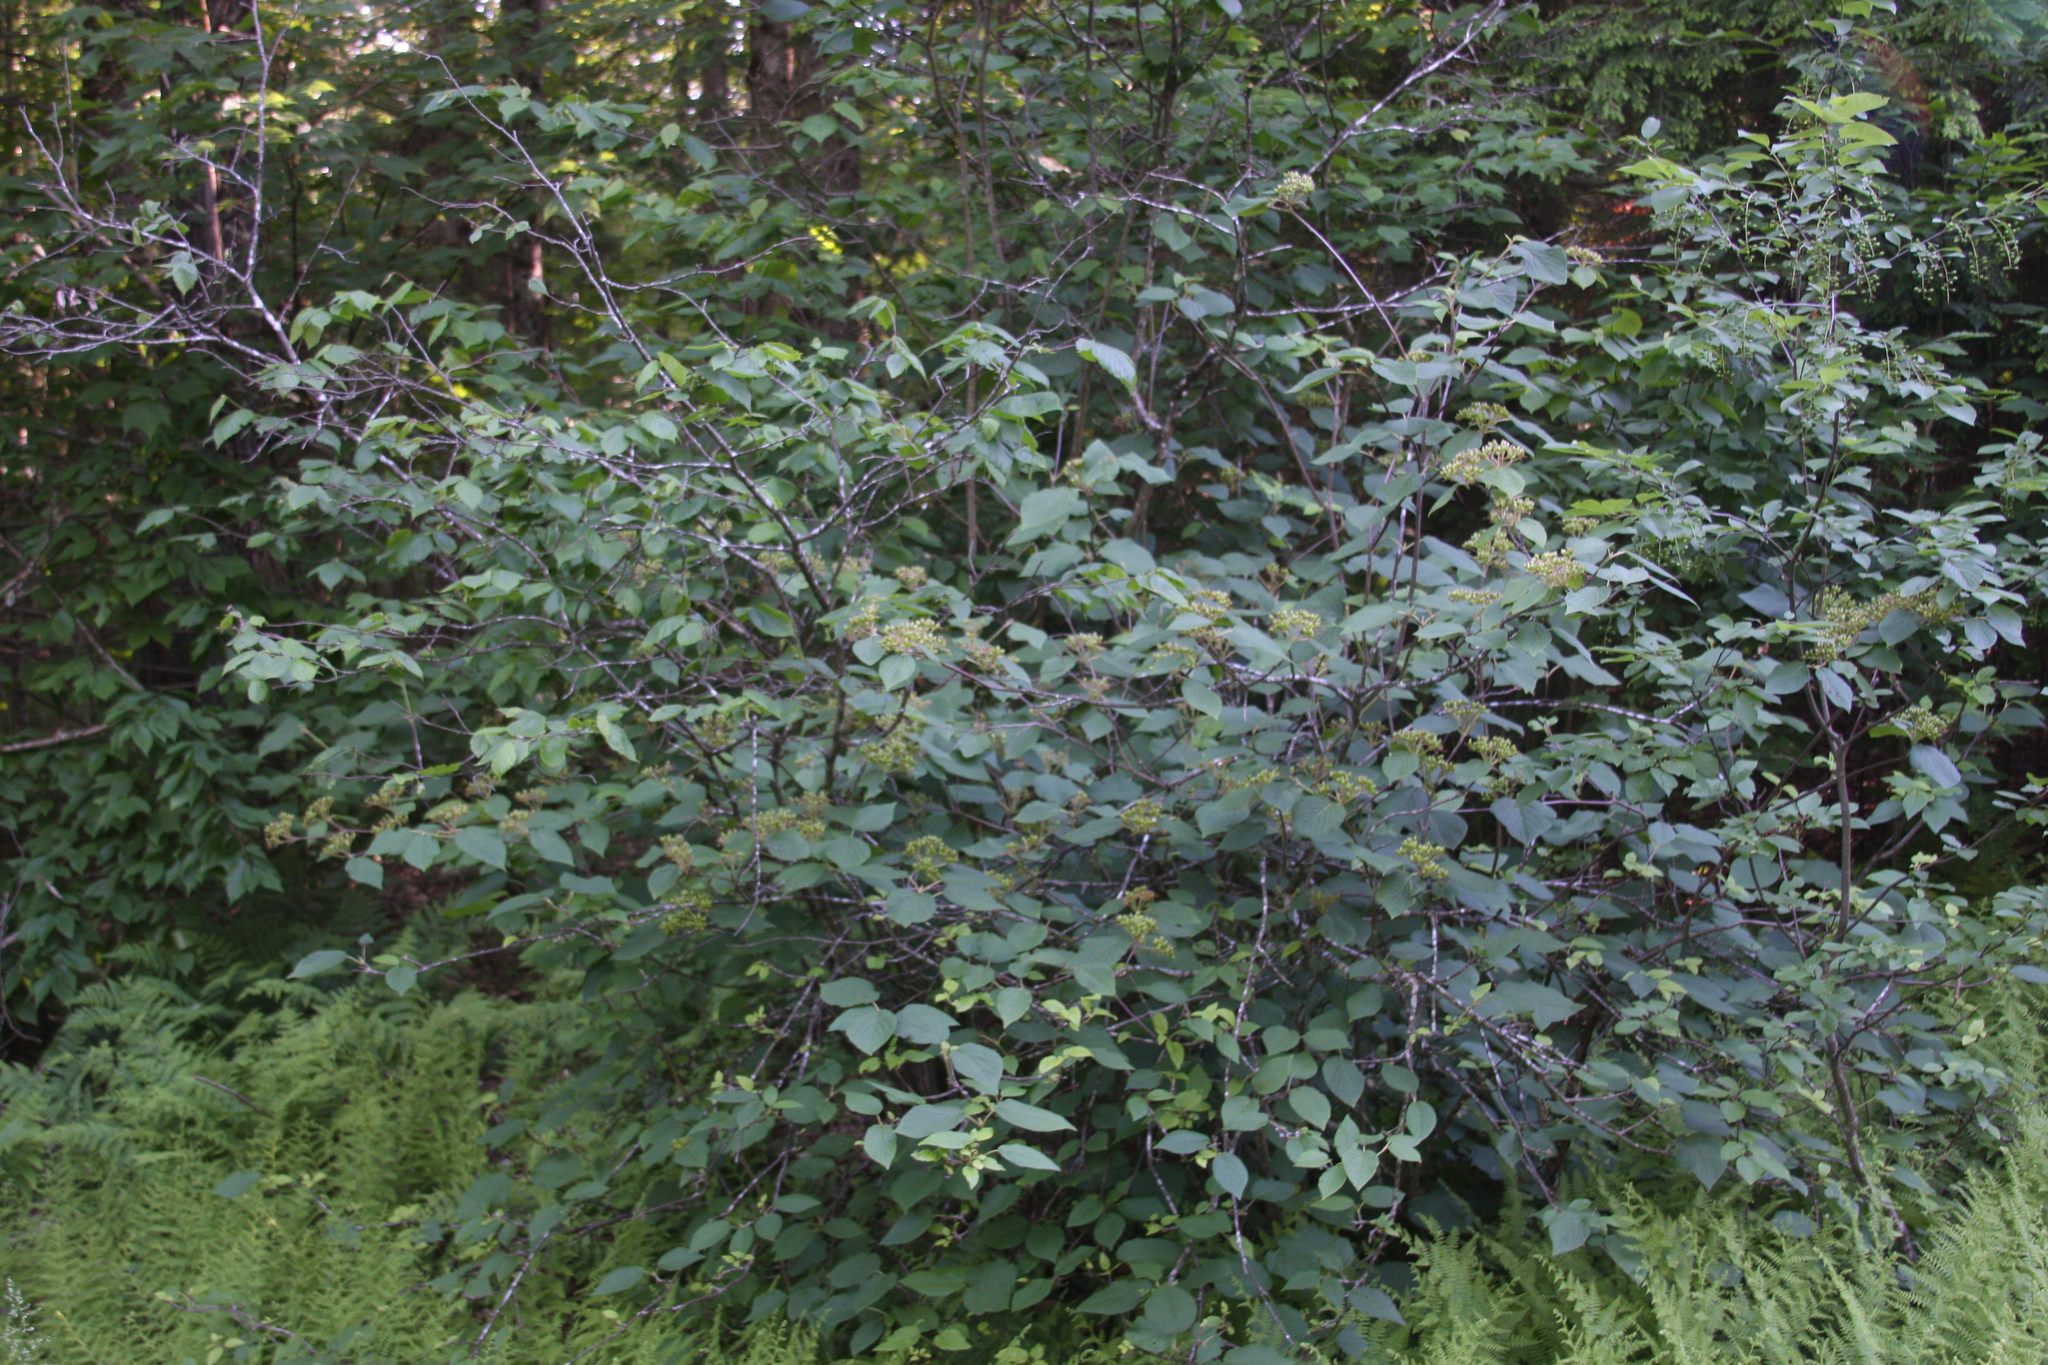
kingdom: Plantae
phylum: Tracheophyta
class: Magnoliopsida
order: Dipsacales
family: Viburnaceae
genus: Viburnum
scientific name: Viburnum lantanoides
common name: Hobblebush
